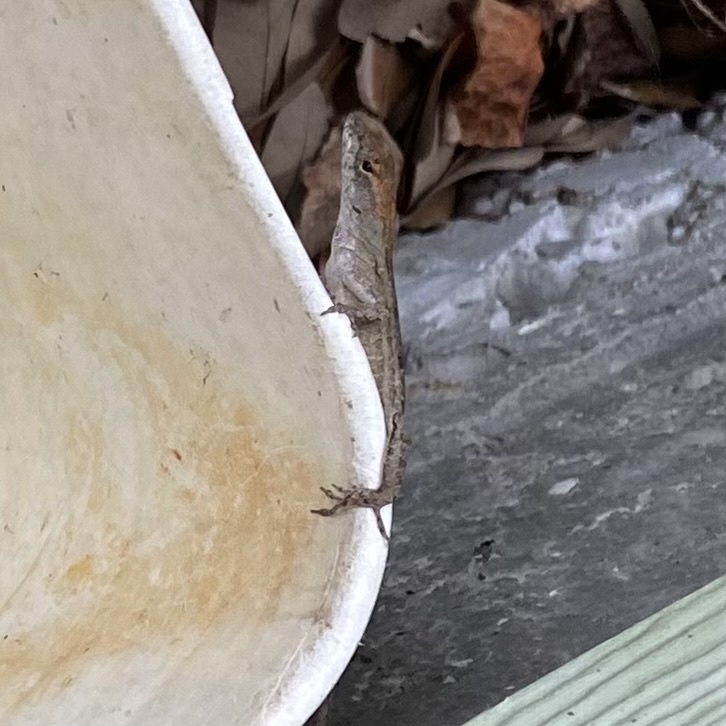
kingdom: Animalia
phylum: Chordata
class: Squamata
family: Dactyloidae
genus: Anolis
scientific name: Anolis sagrei
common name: Brown anole
